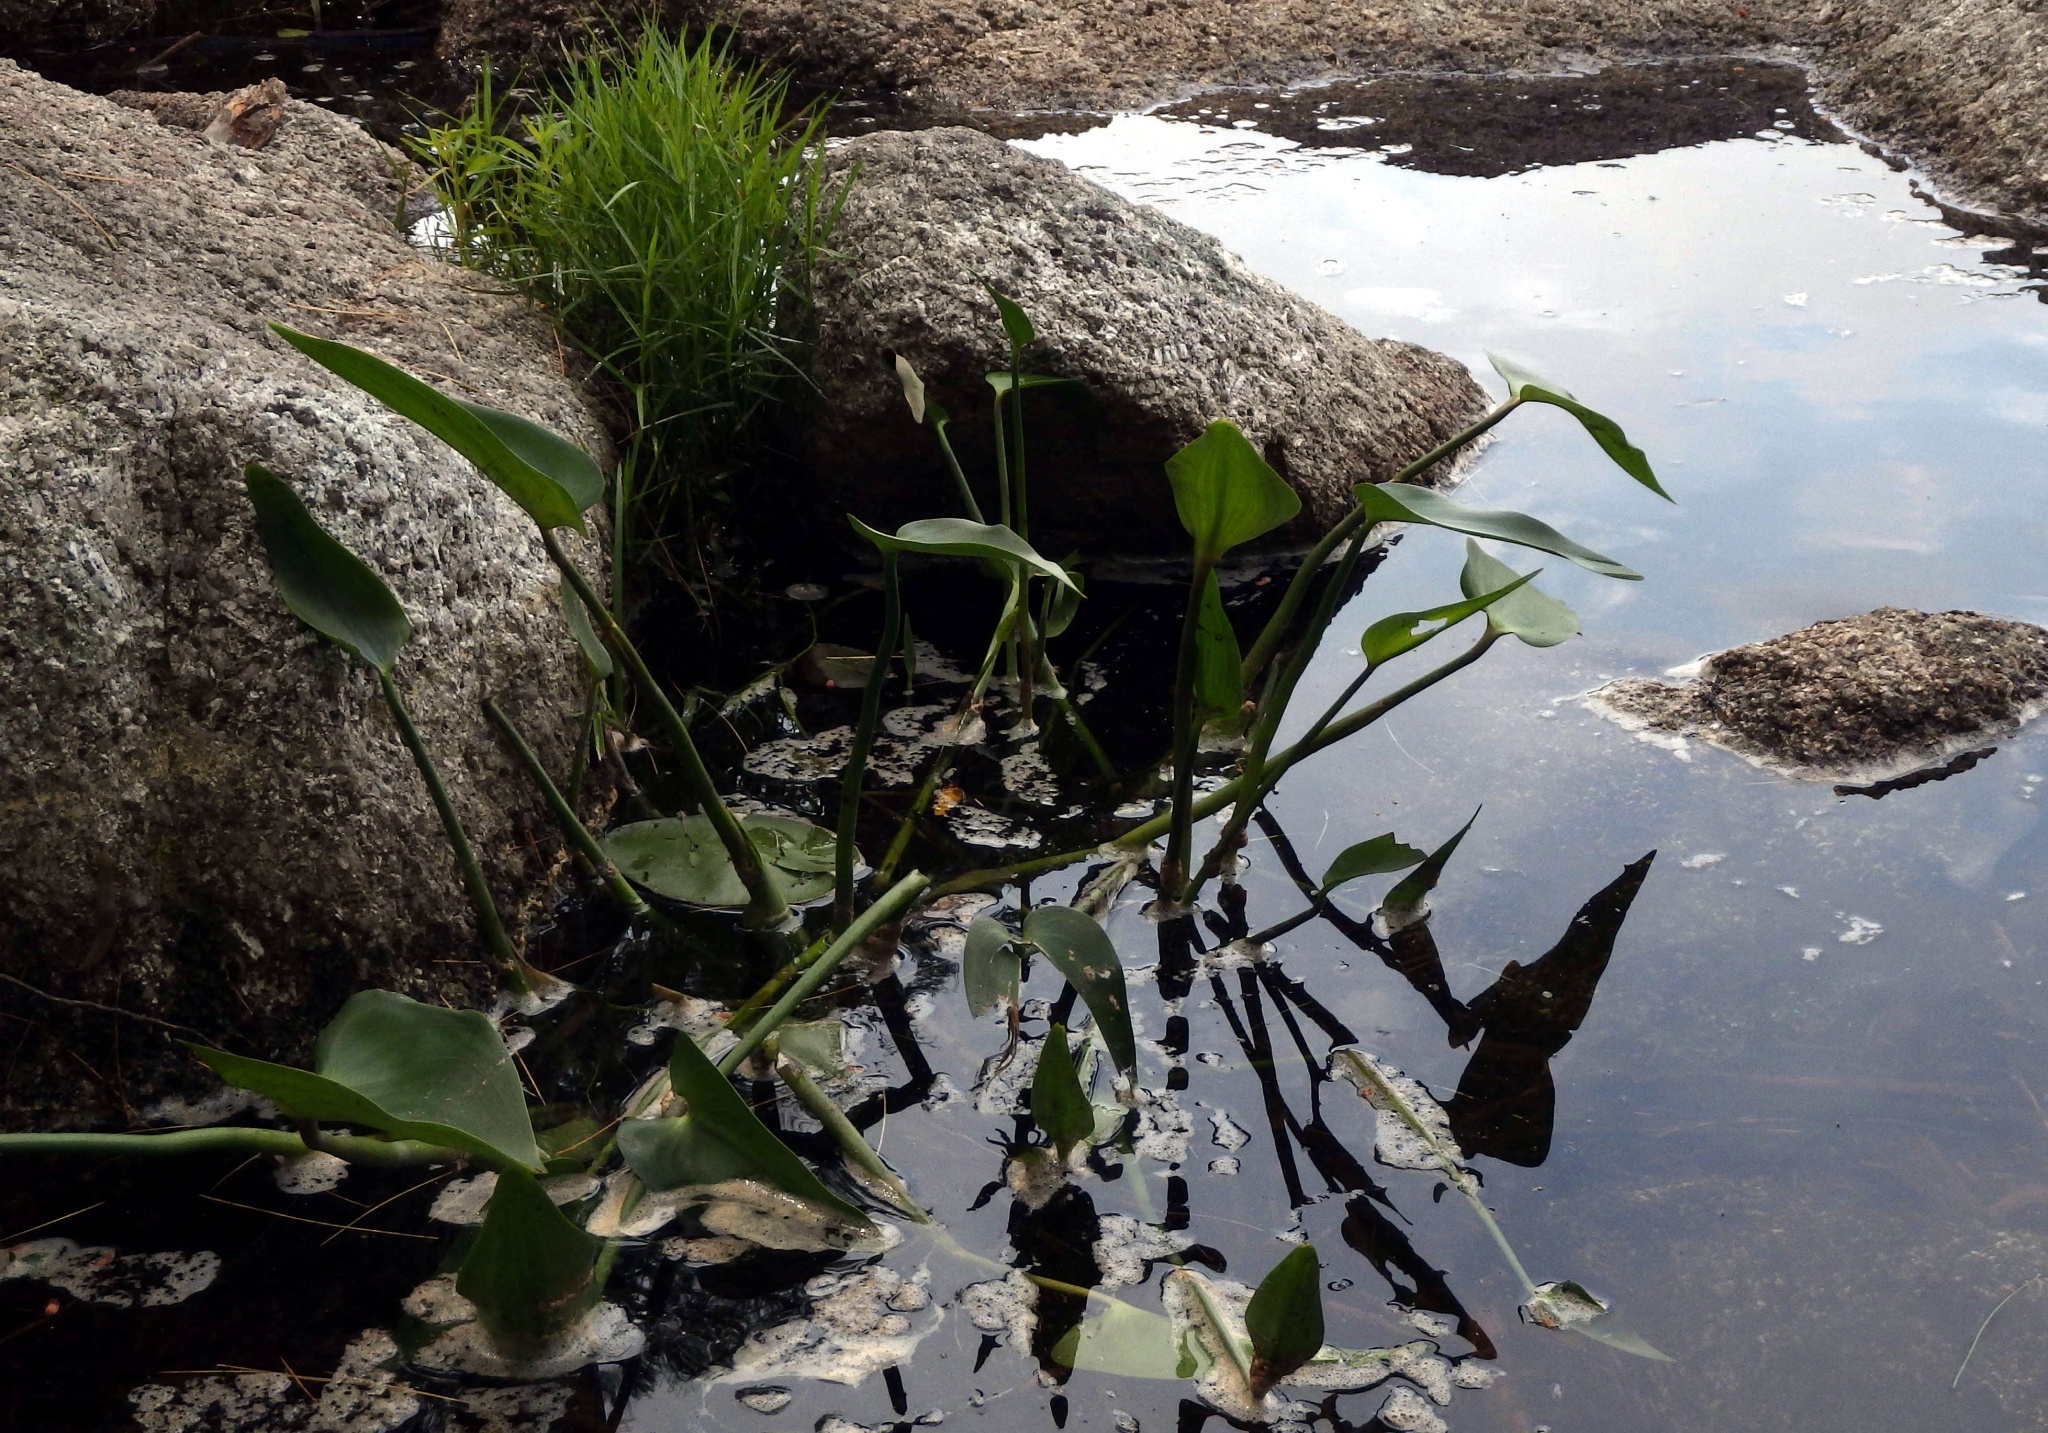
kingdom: Plantae
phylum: Tracheophyta
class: Liliopsida
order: Commelinales
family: Pontederiaceae
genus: Pontederia
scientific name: Pontederia cordata
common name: Pickerelweed
